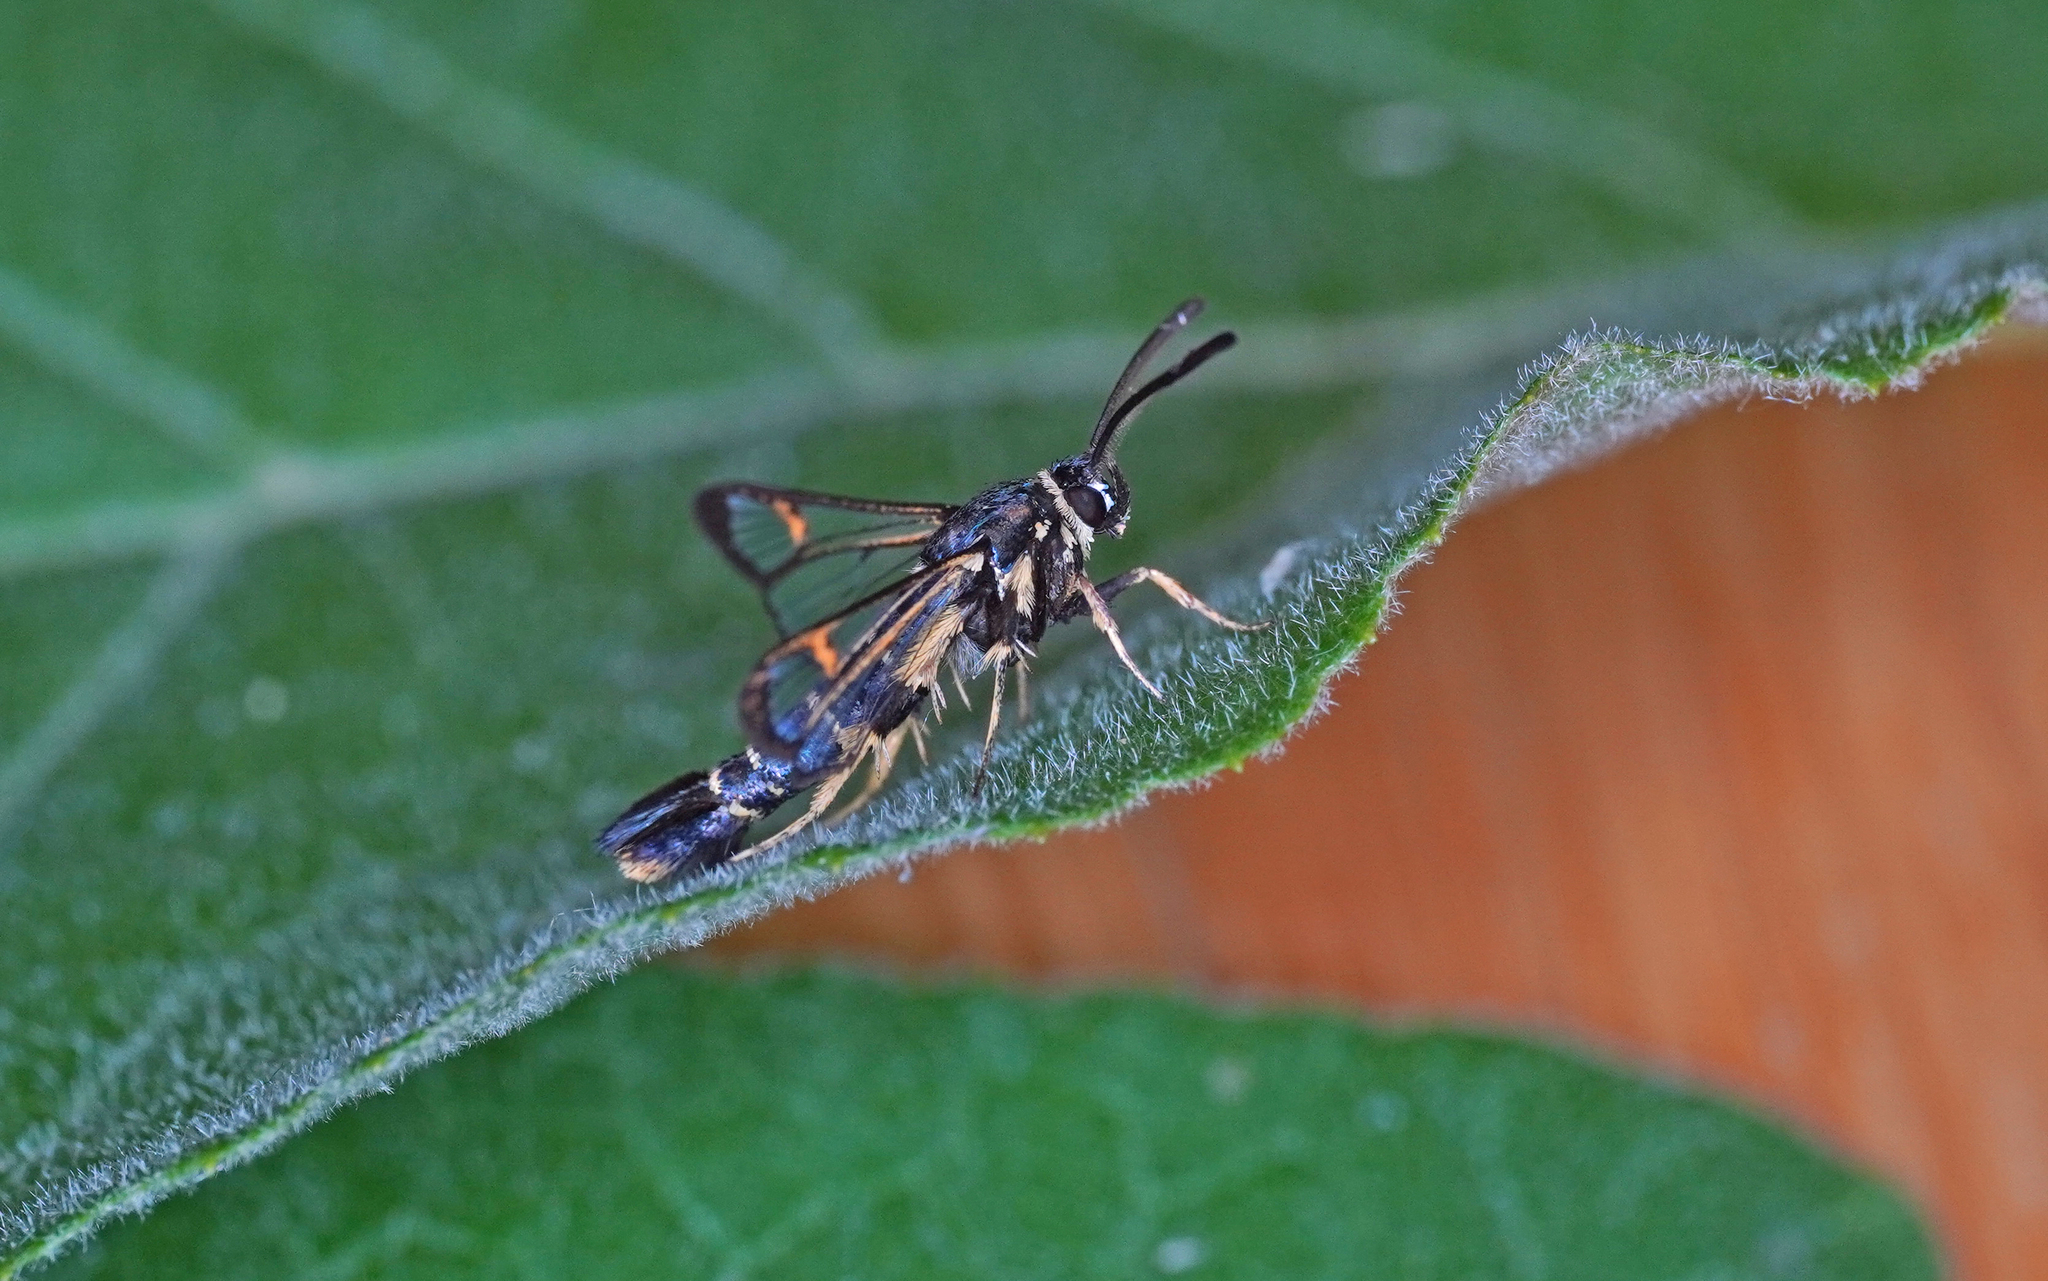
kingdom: Animalia
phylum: Arthropoda
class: Insecta
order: Lepidoptera
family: Sesiidae
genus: Synanthedon
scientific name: Synanthedon vespiformis
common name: Yellow-legged clearwing
